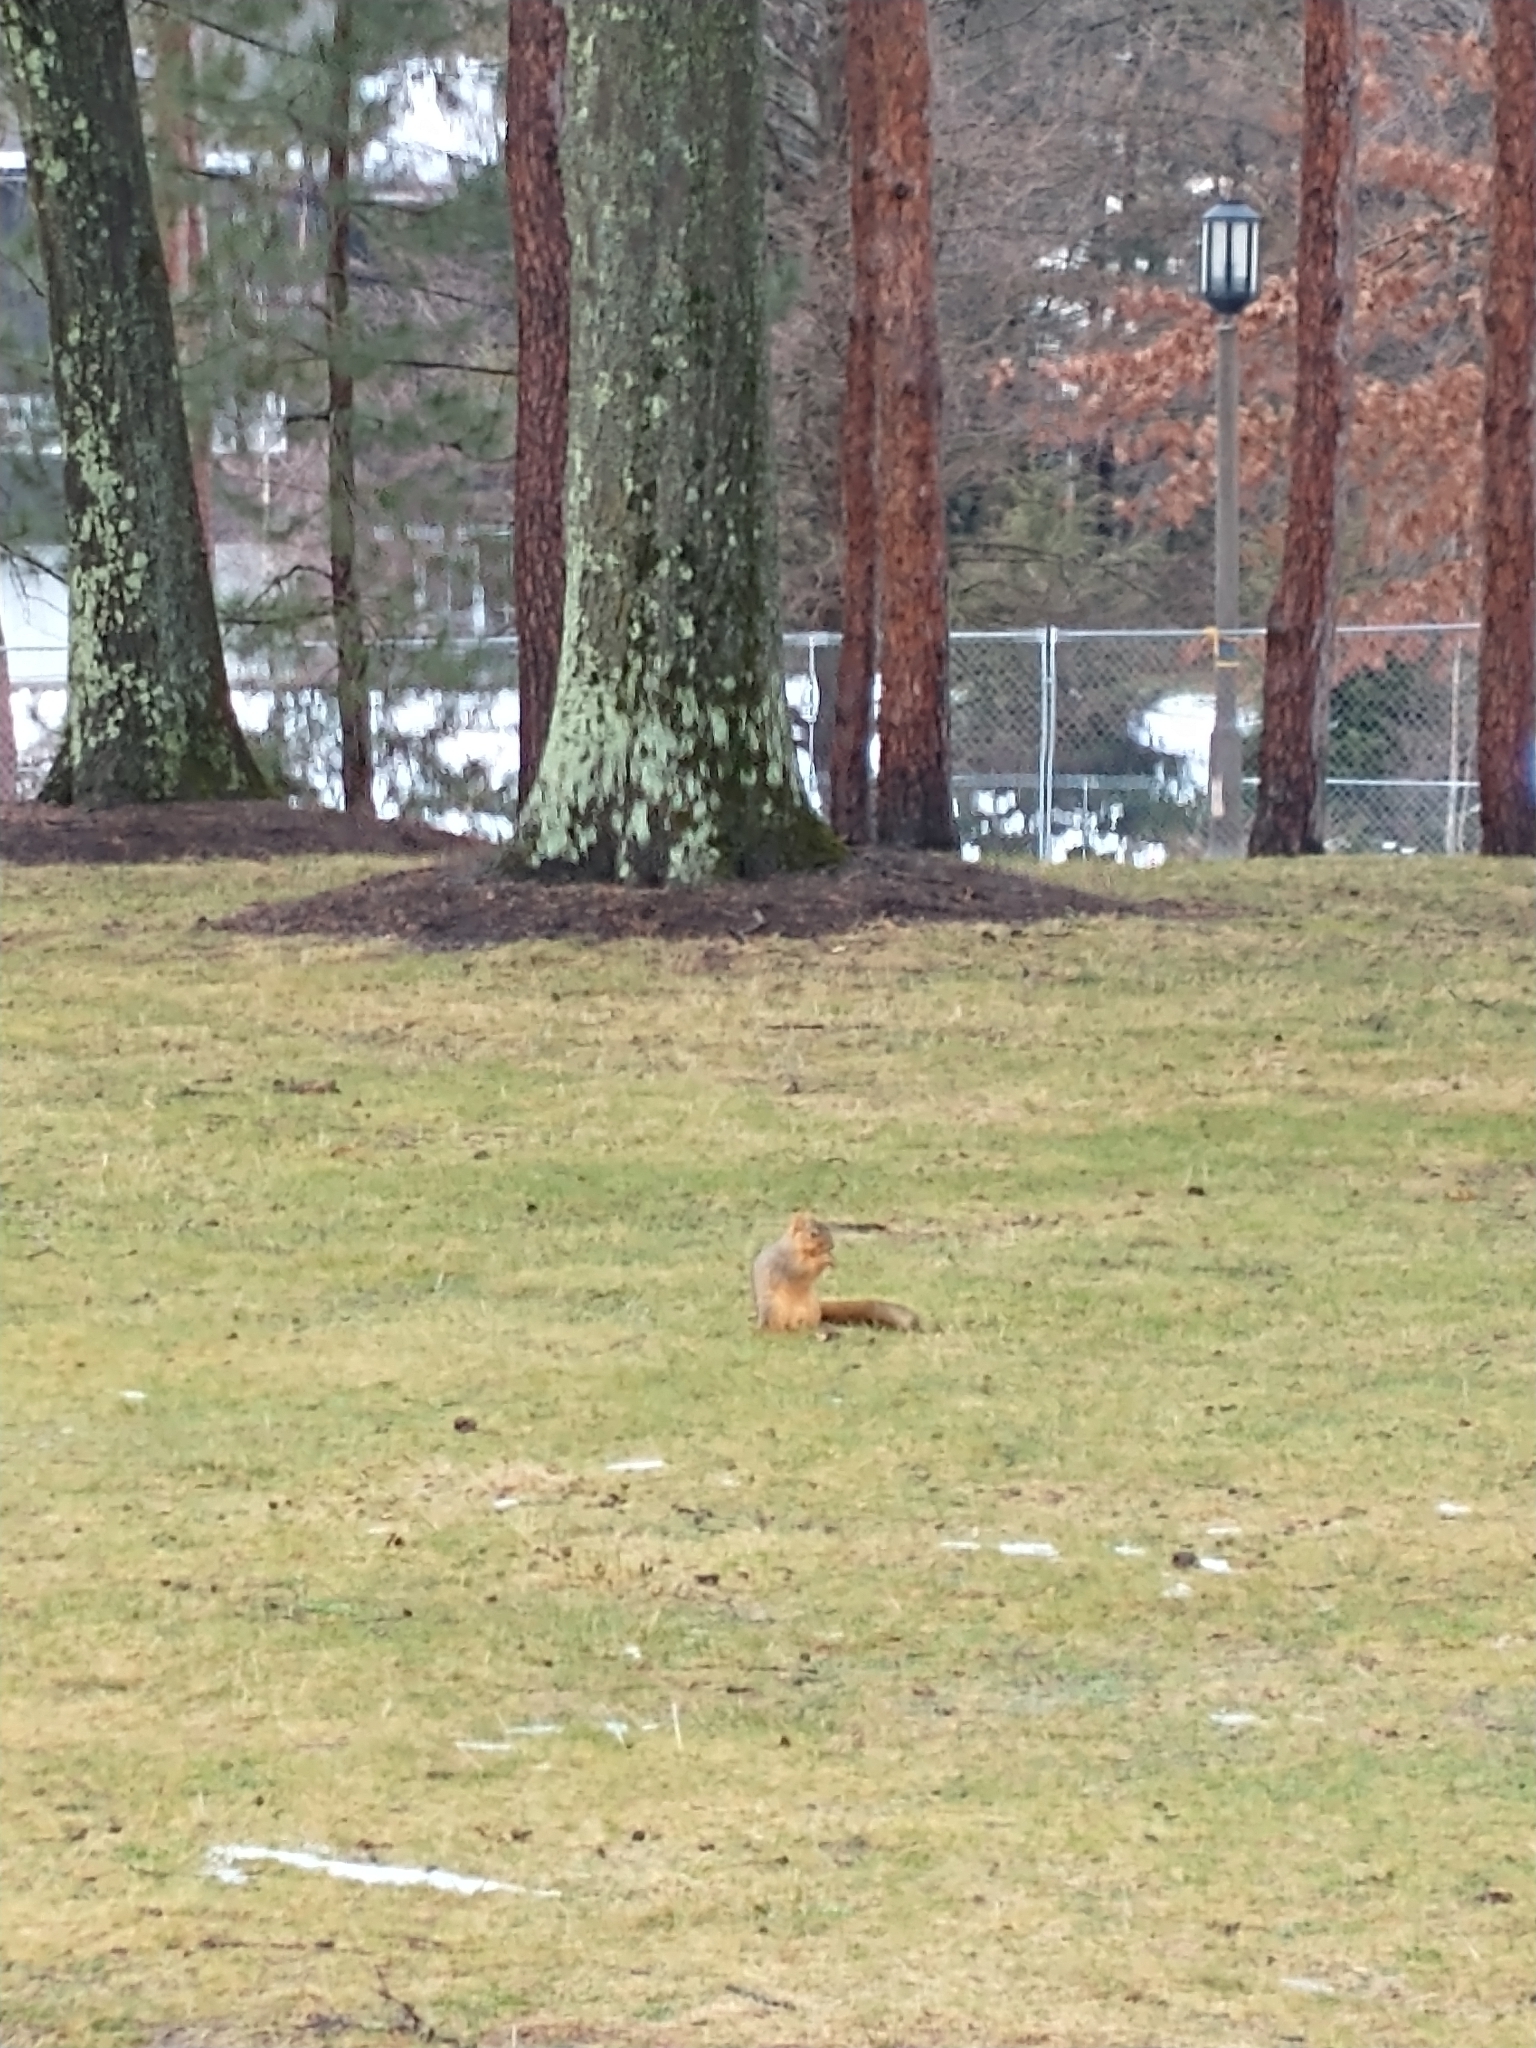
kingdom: Animalia
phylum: Chordata
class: Mammalia
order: Rodentia
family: Sciuridae
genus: Sciurus
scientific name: Sciurus niger
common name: Fox squirrel
